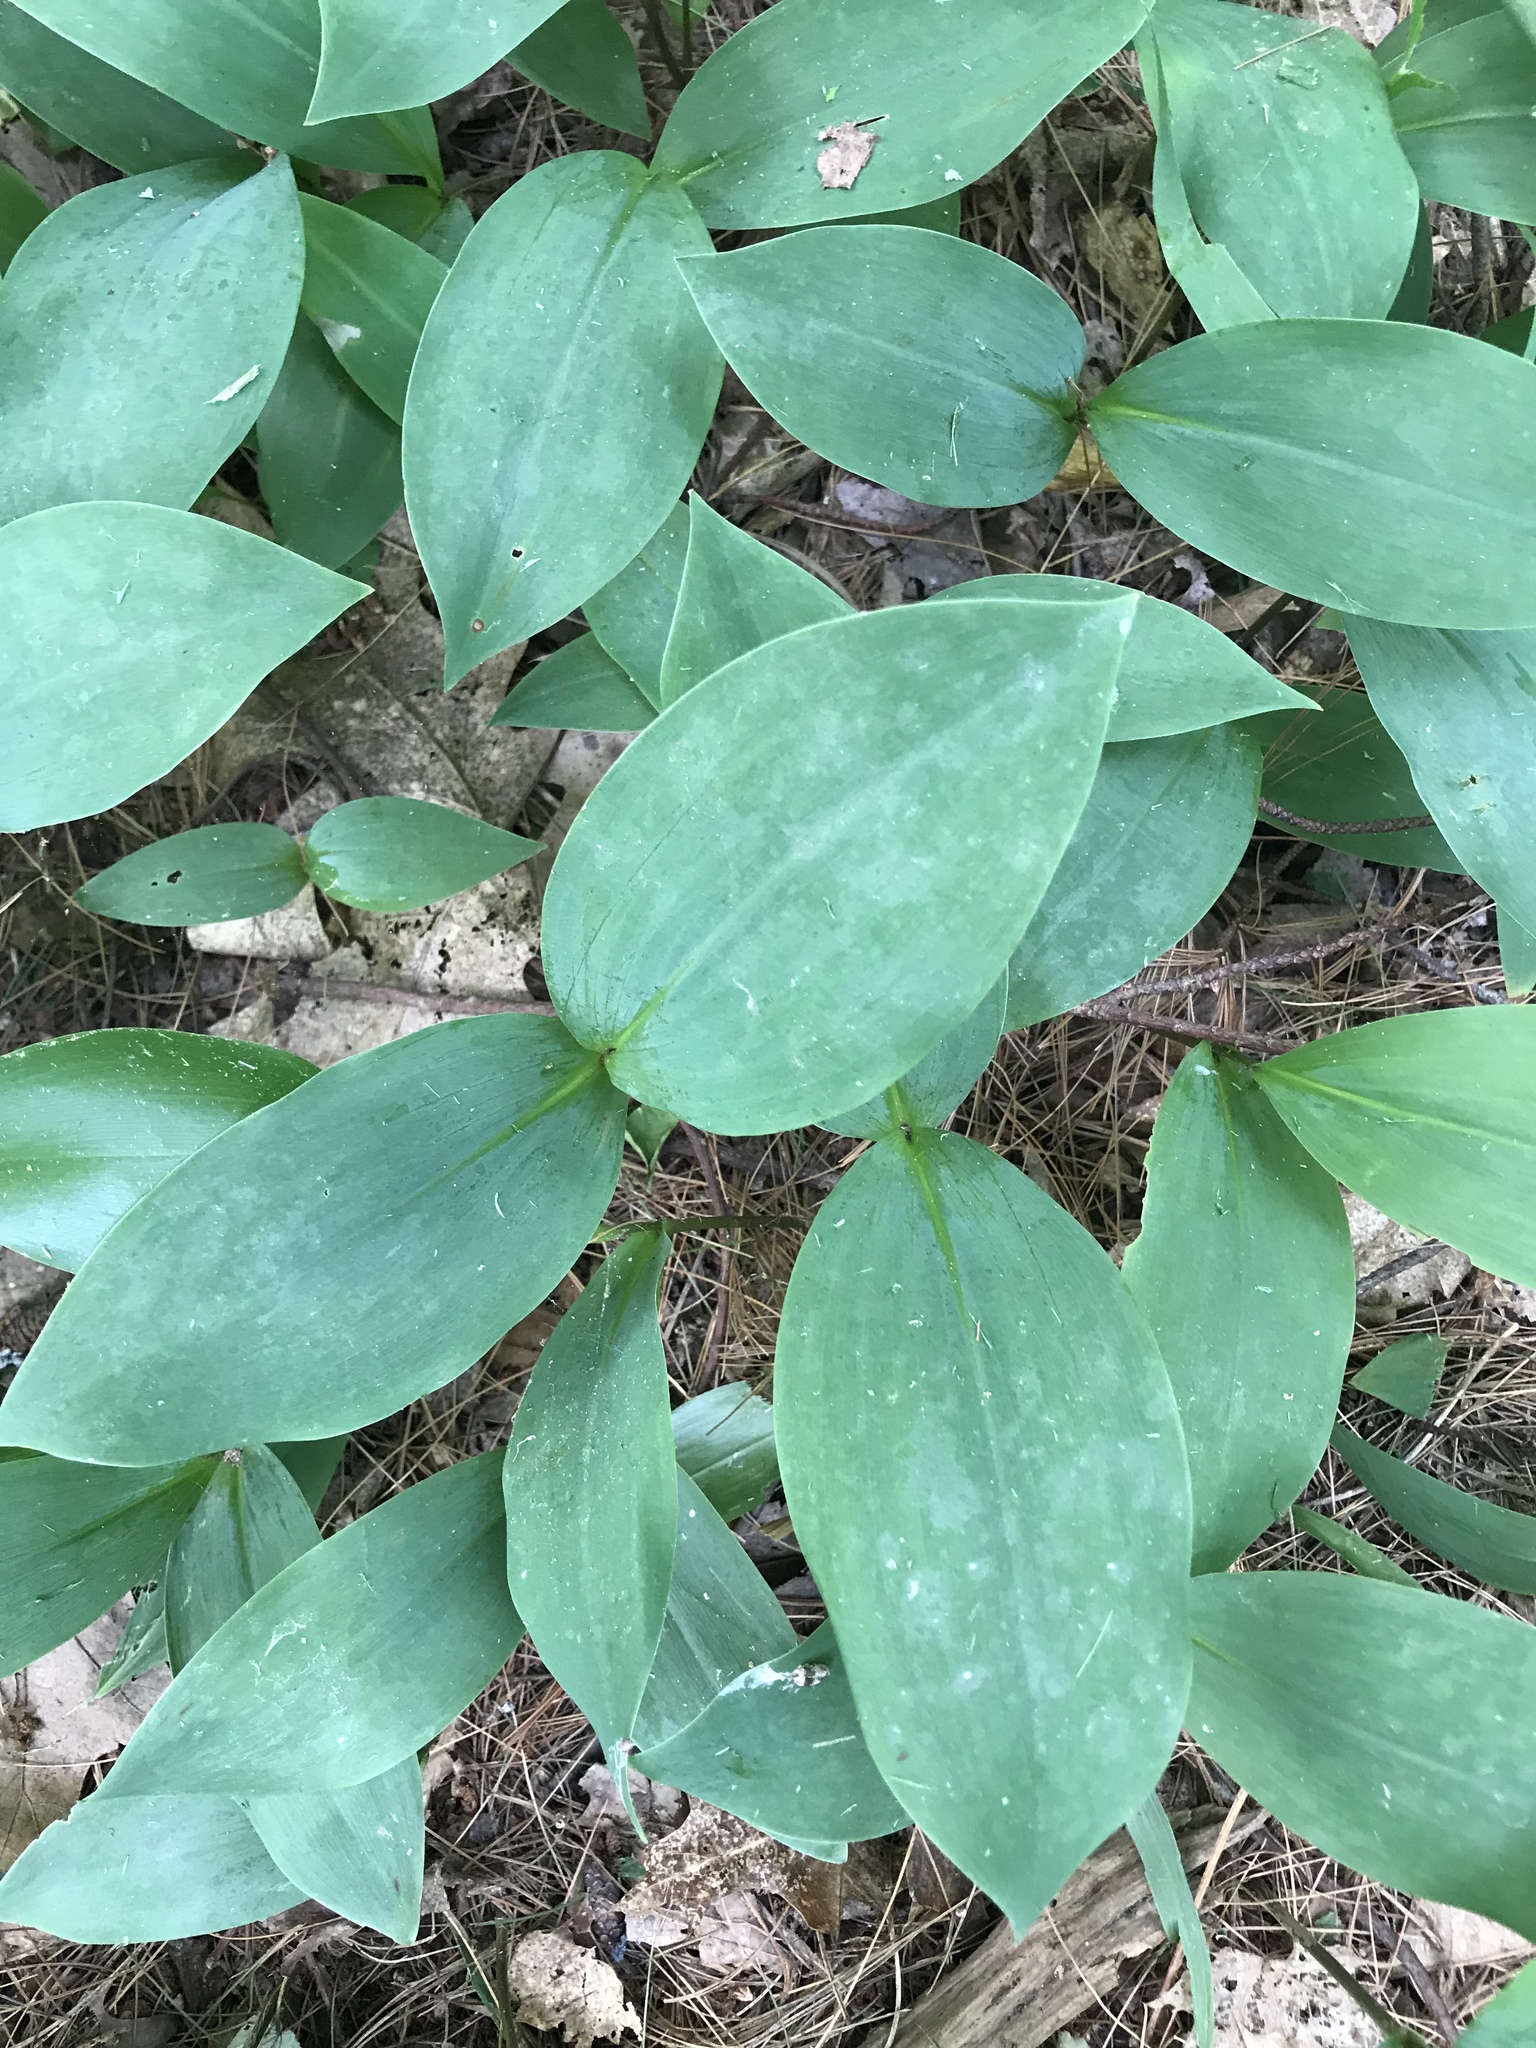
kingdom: Plantae
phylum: Tracheophyta
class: Liliopsida
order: Asparagales
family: Asparagaceae
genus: Convallaria
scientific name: Convallaria majalis
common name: Lily-of-the-valley
